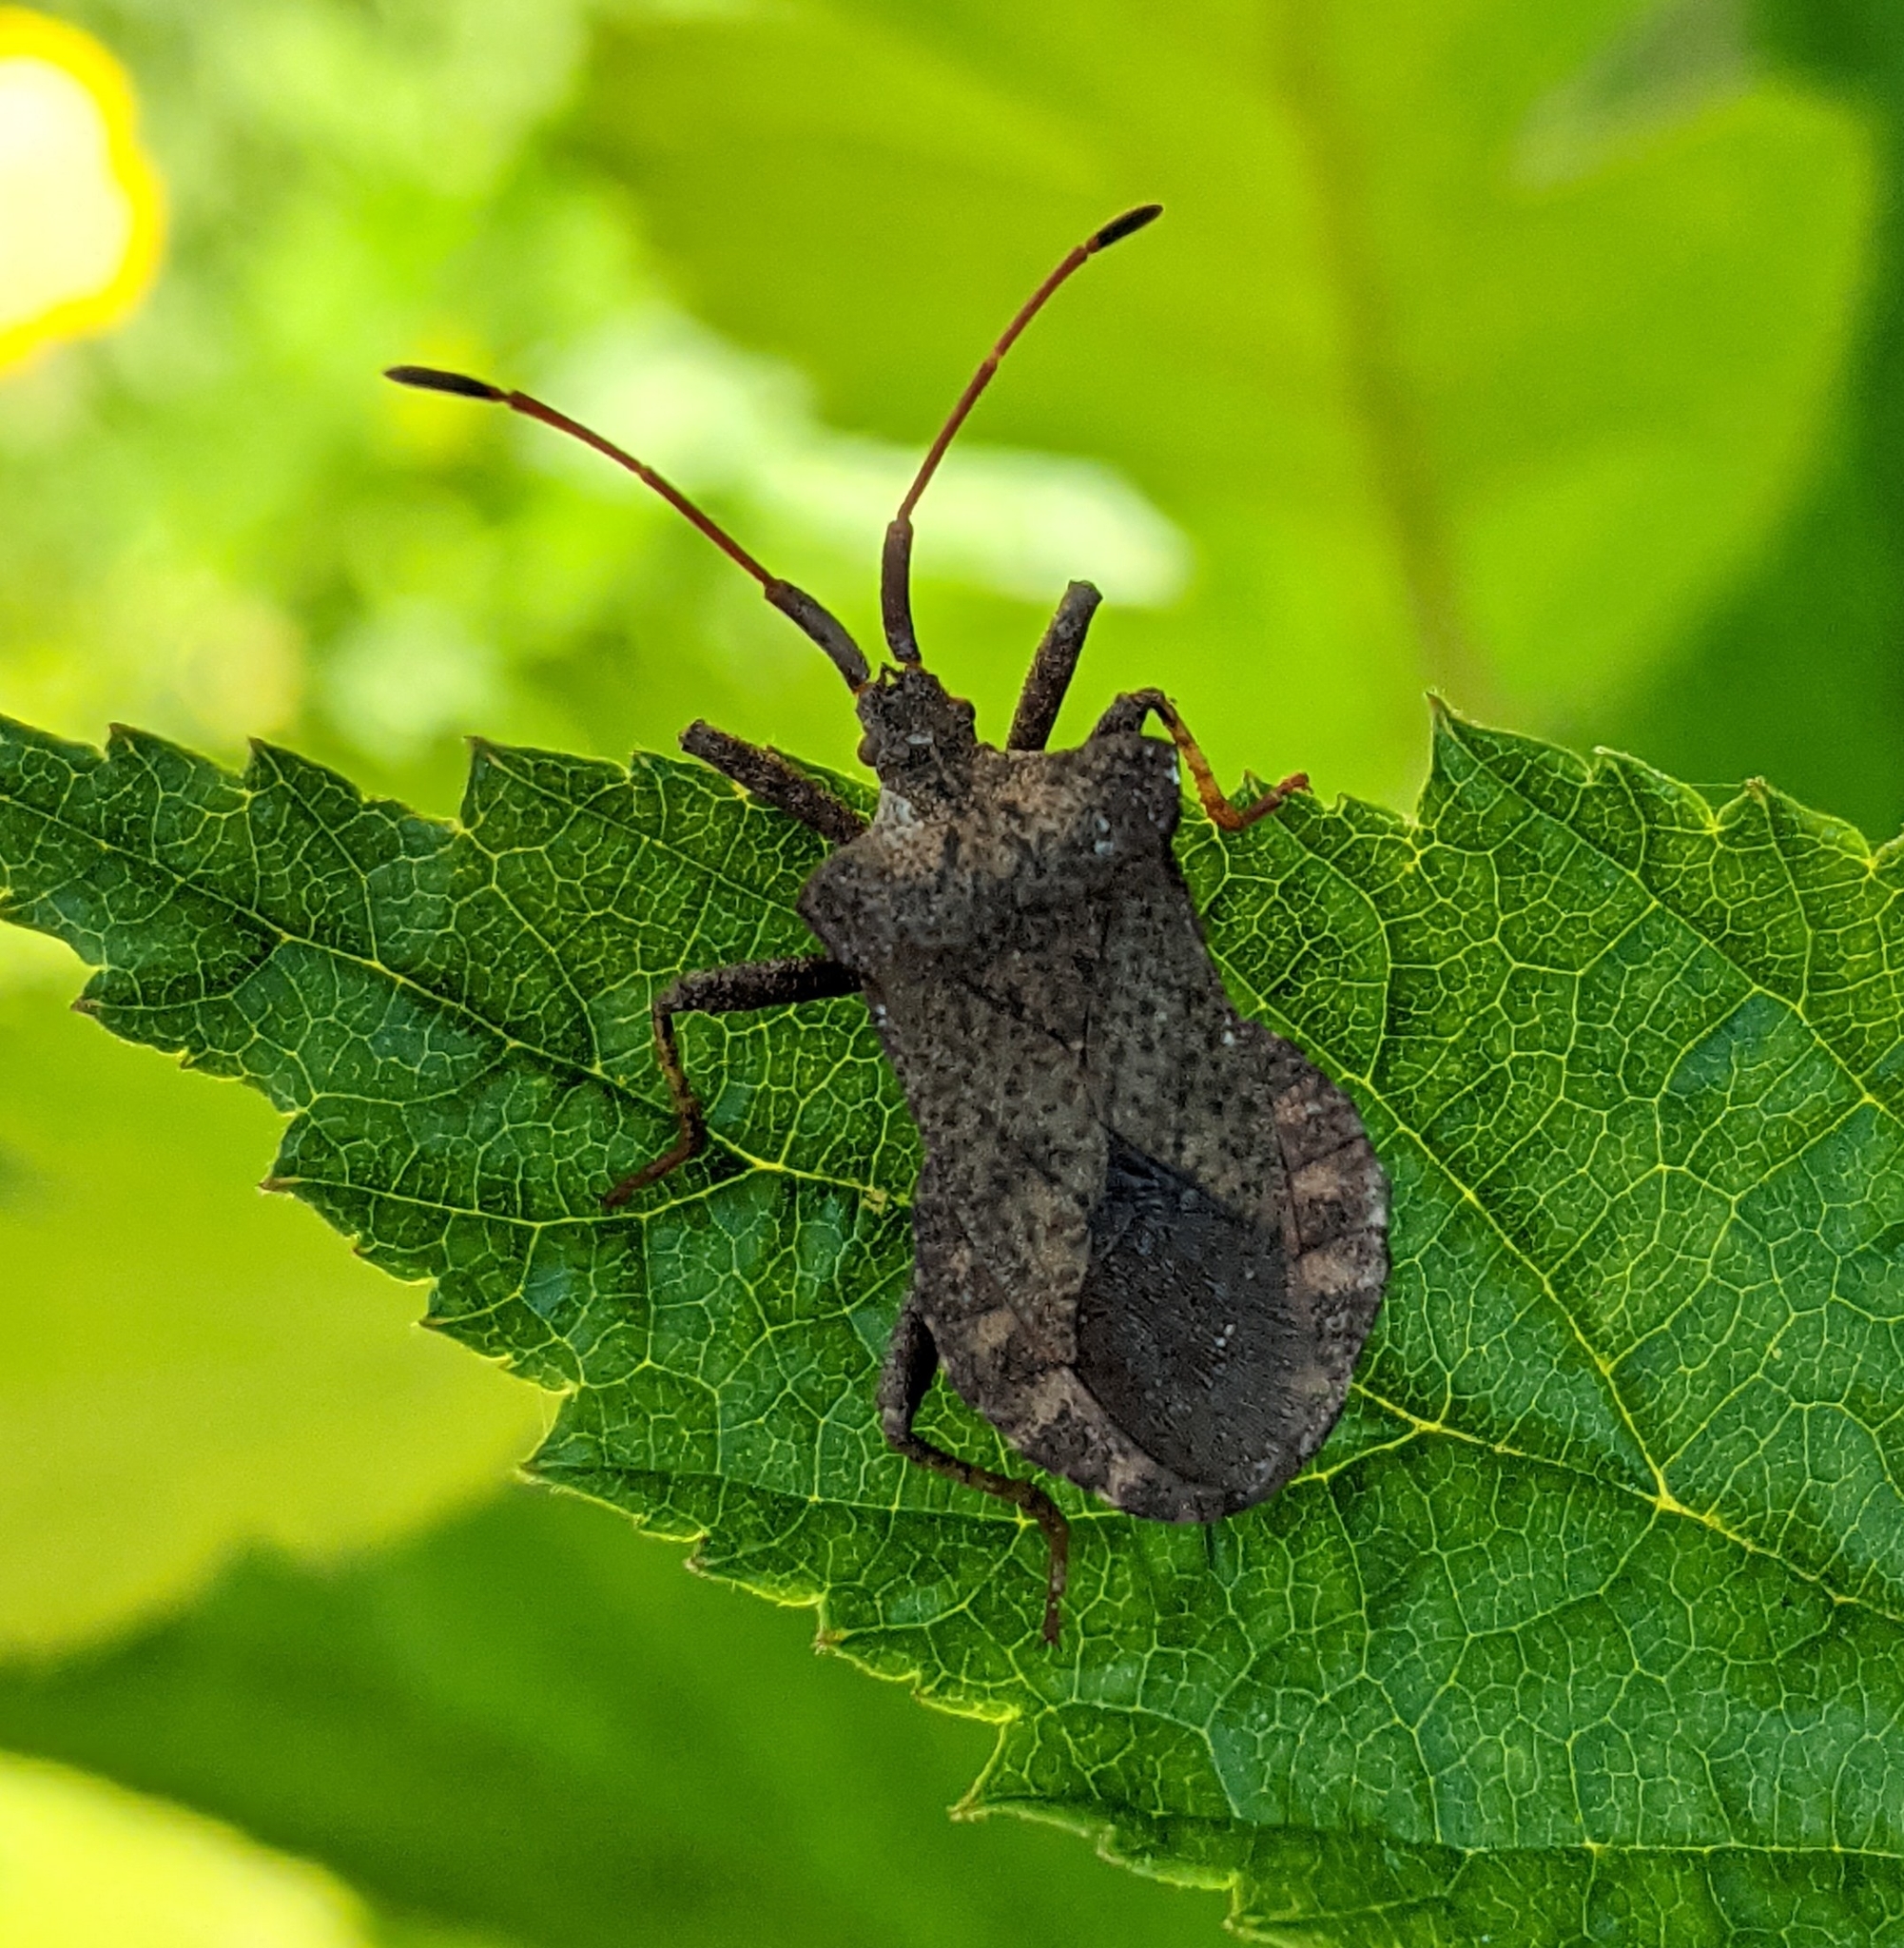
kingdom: Animalia
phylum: Arthropoda
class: Insecta
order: Hemiptera
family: Coreidae
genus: Coreus
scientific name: Coreus marginatus
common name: Dock bug
